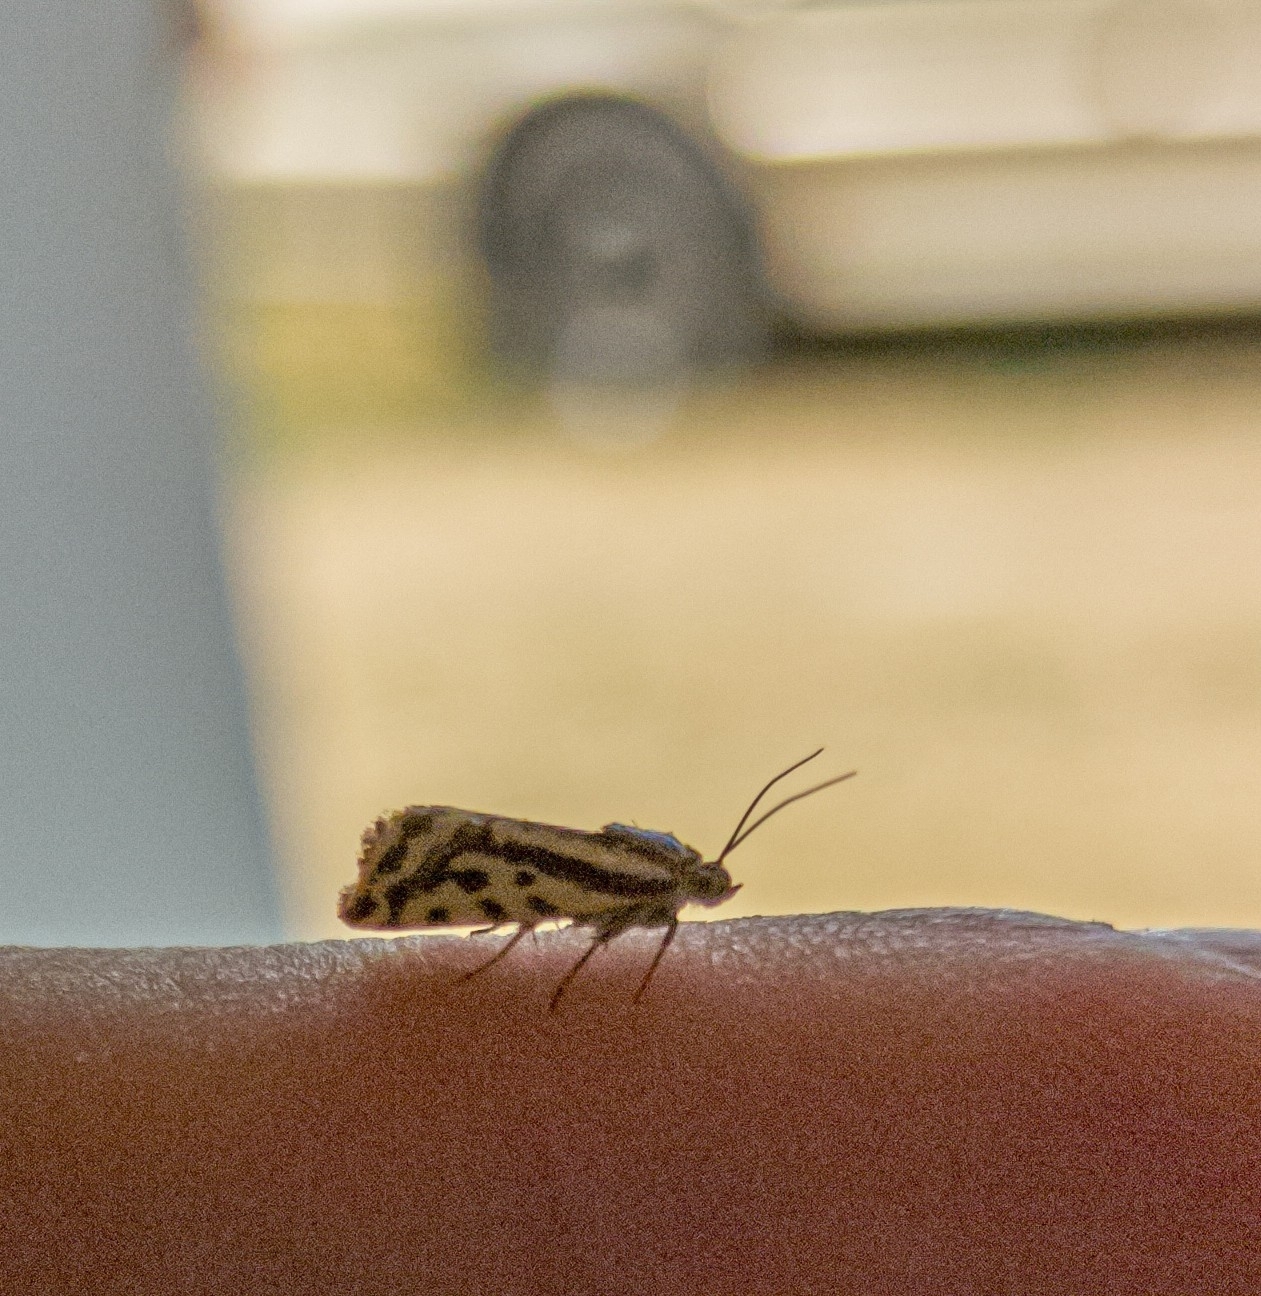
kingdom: Animalia
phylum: Arthropoda
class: Insecta
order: Lepidoptera
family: Noctuidae
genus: Acontia
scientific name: Acontia trabealis
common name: Spotted sulphur
